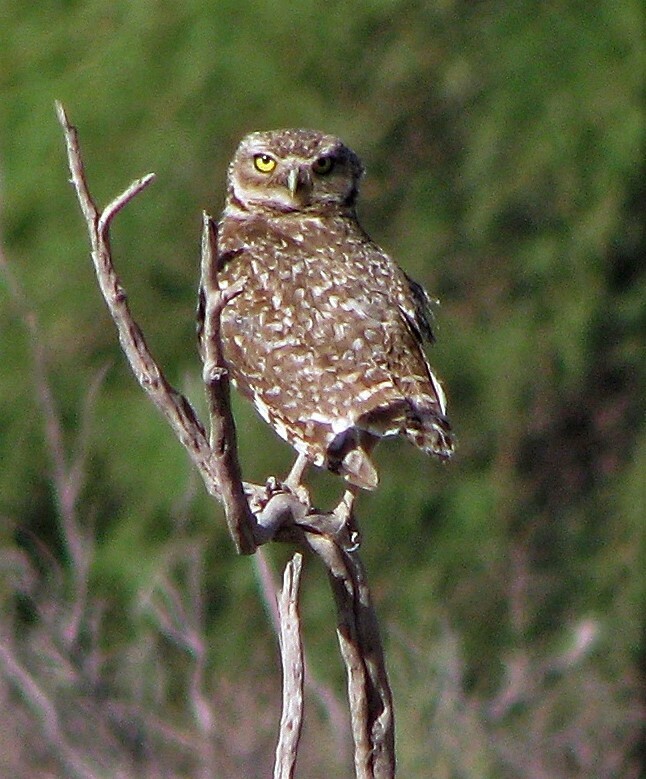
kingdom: Animalia
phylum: Chordata
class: Aves
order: Strigiformes
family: Strigidae
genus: Athene
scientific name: Athene cunicularia
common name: Burrowing owl
